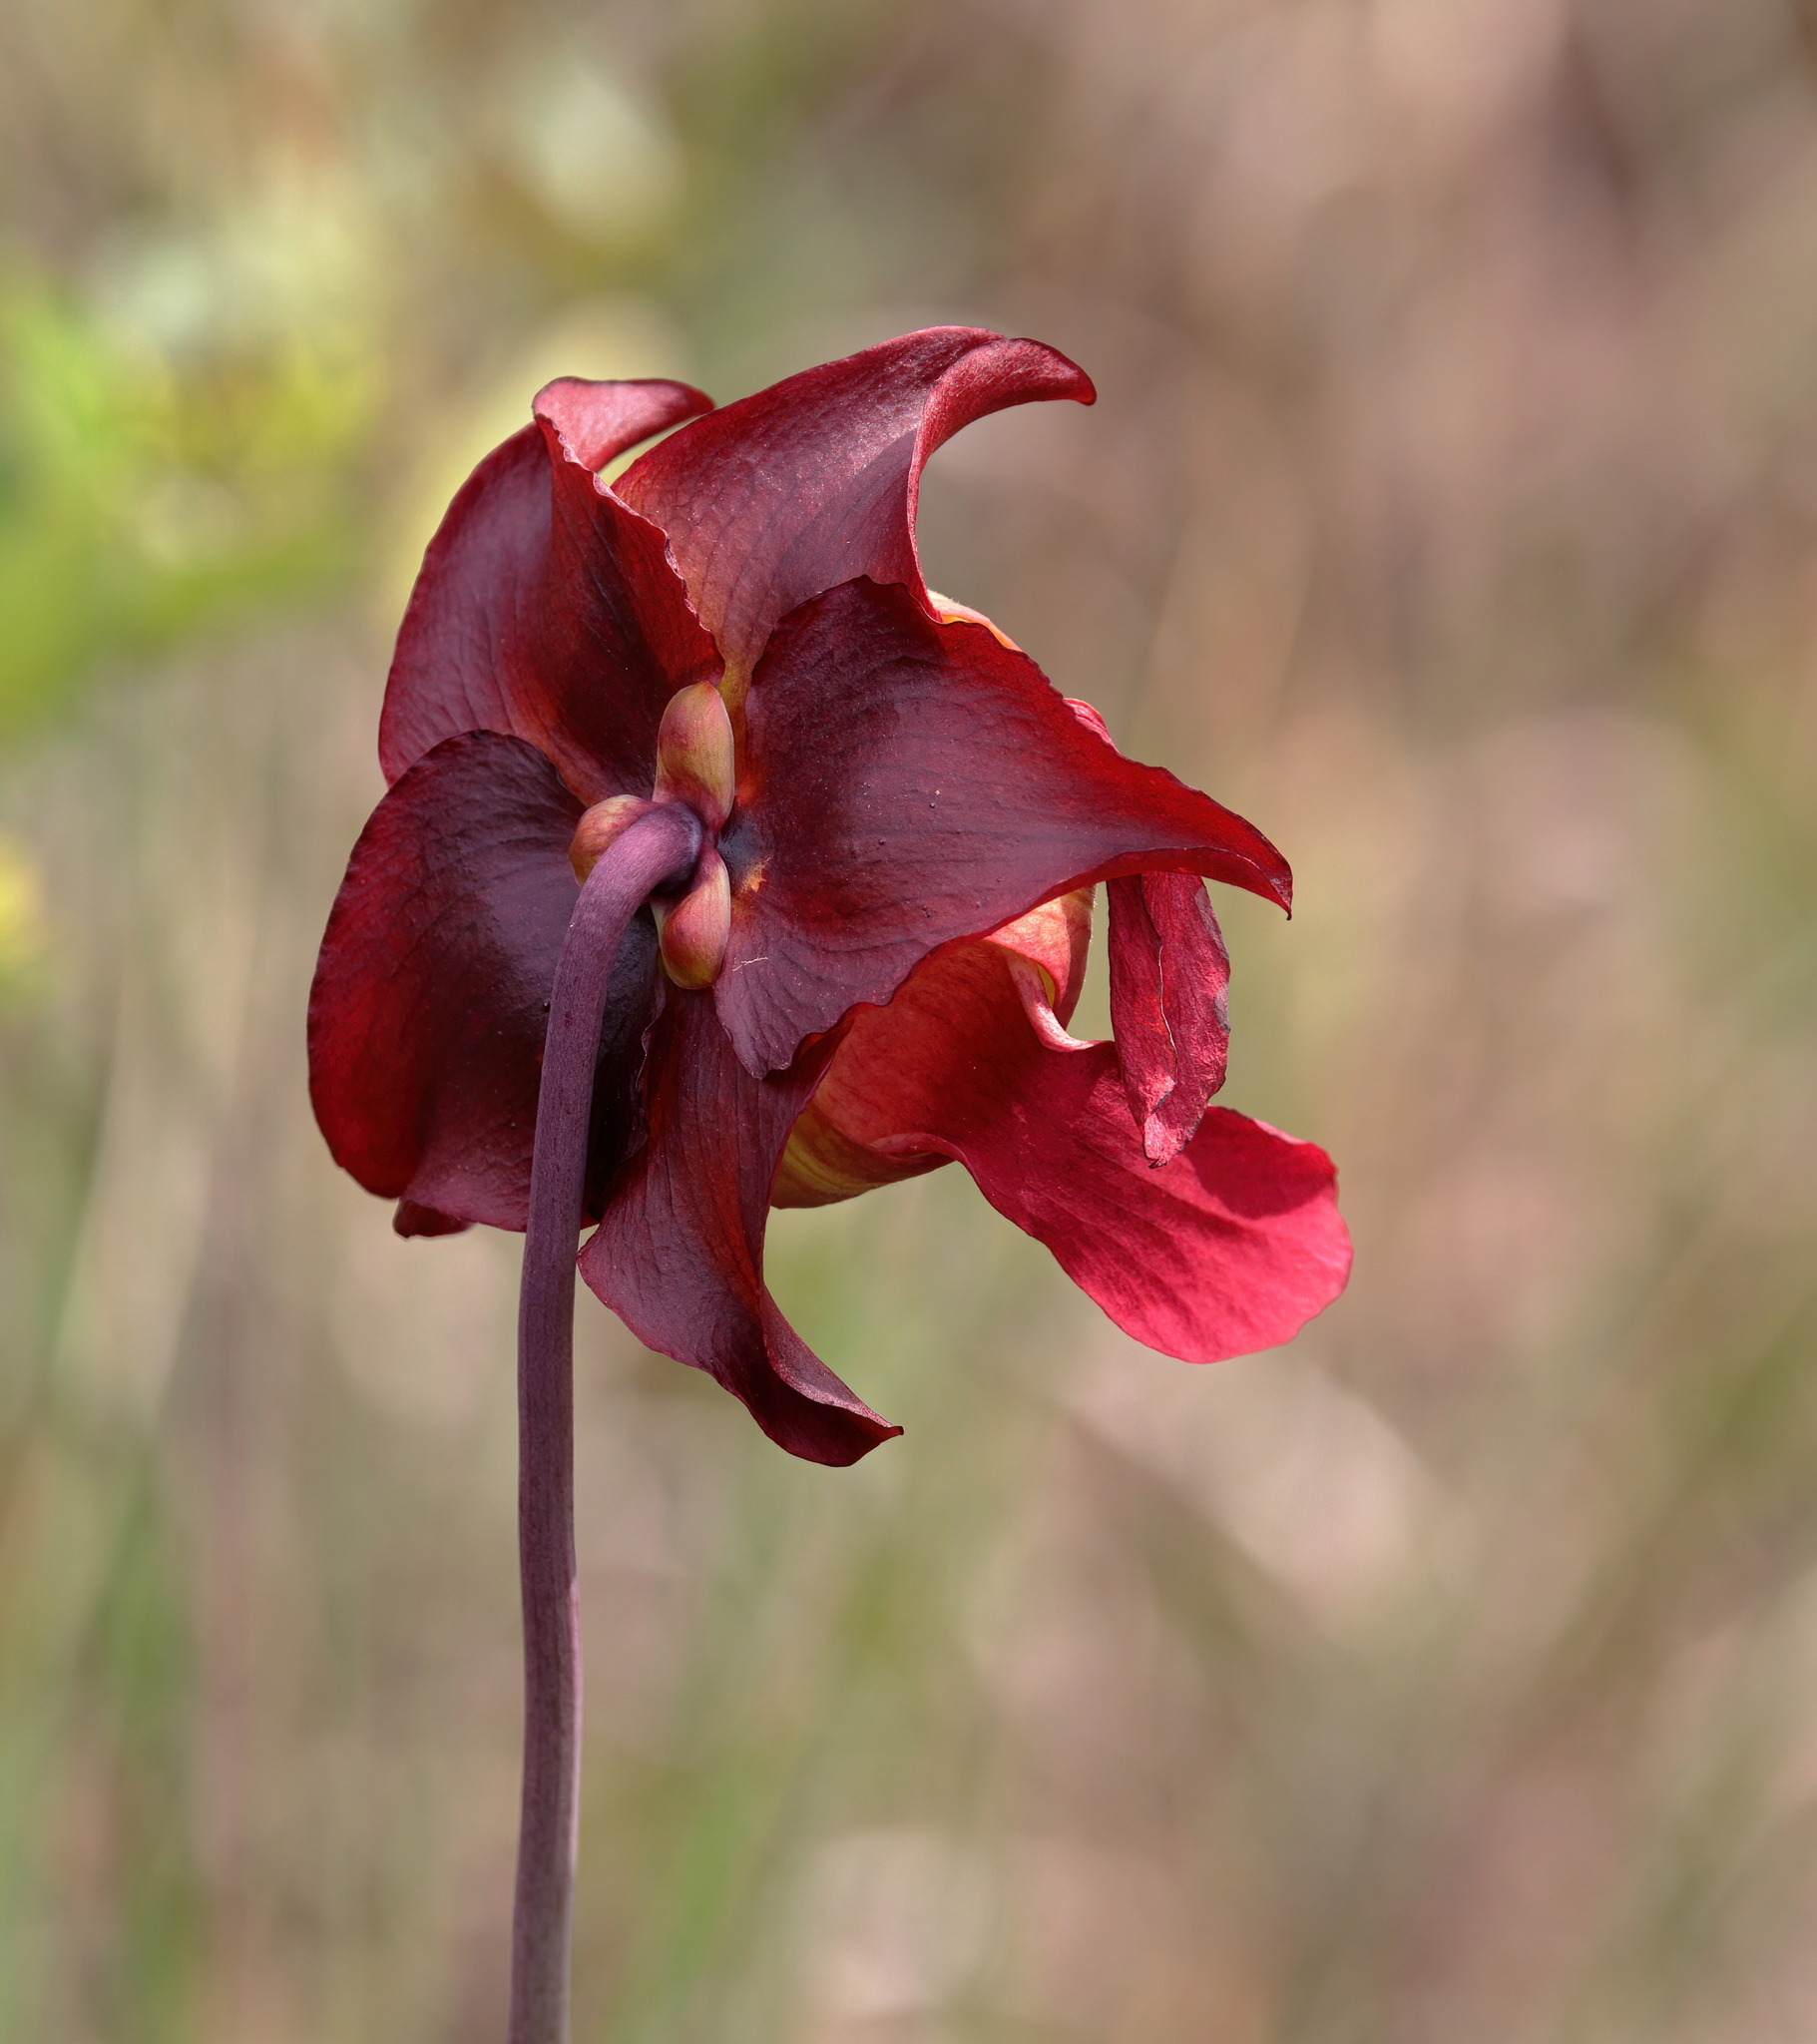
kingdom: Plantae
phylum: Tracheophyta
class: Magnoliopsida
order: Ericales
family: Sarraceniaceae
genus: Sarracenia
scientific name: Sarracenia leucophylla
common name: Purple trumpetleaf
